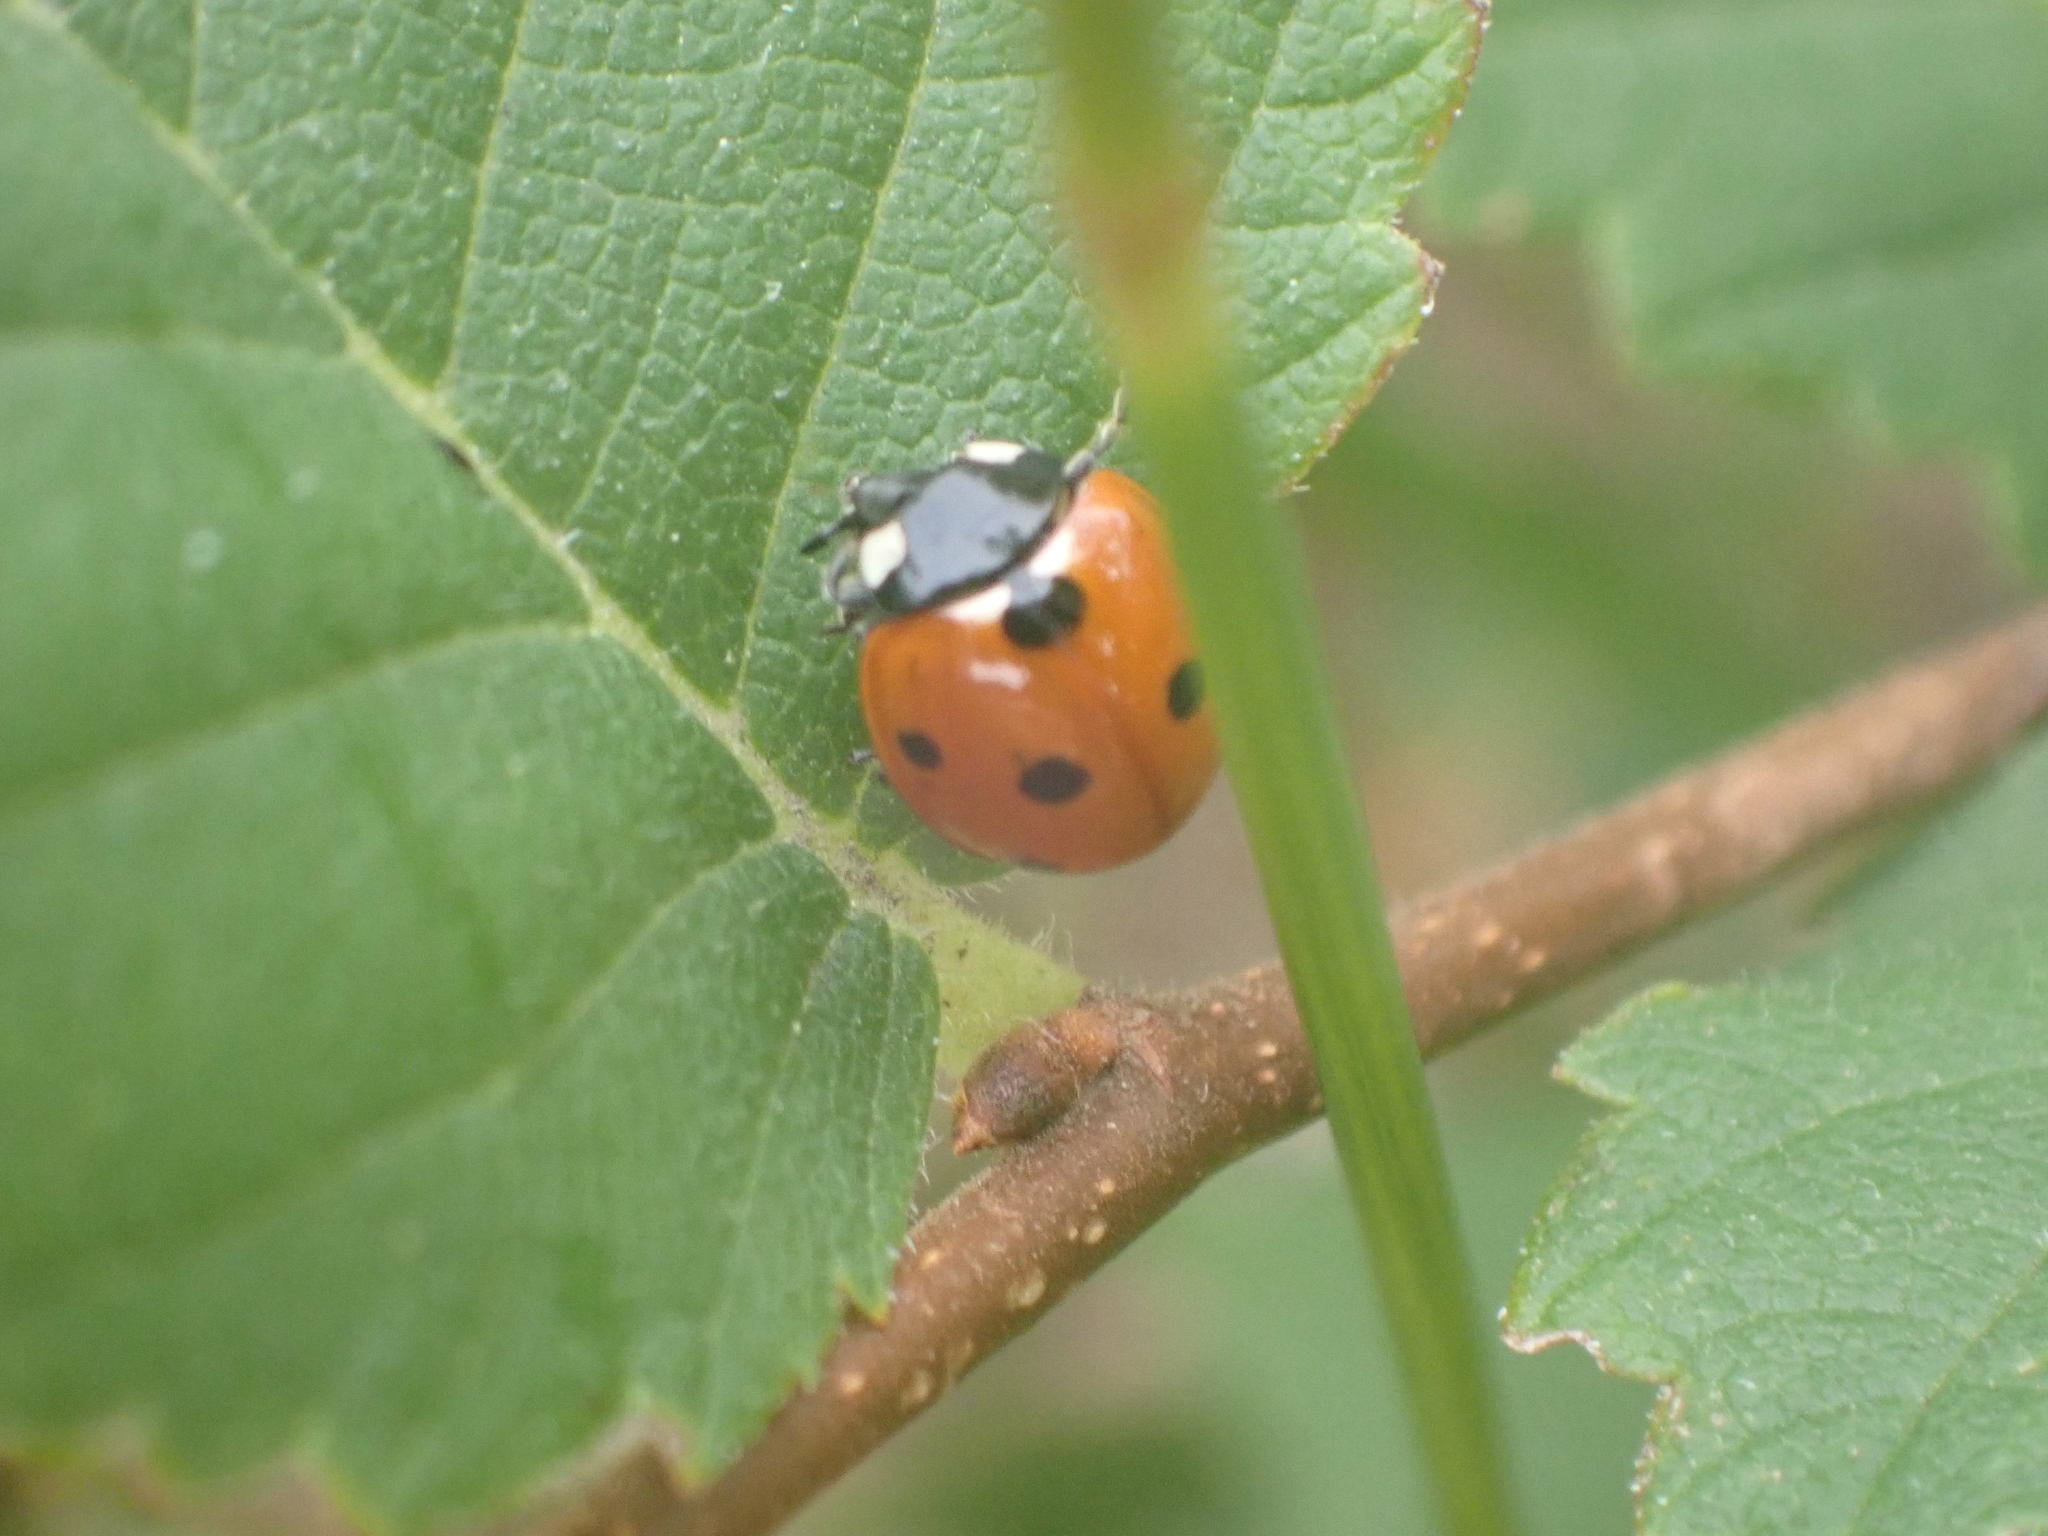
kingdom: Animalia
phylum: Arthropoda
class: Insecta
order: Coleoptera
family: Coccinellidae
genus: Coccinella
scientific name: Coccinella septempunctata
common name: Sevenspotted lady beetle
